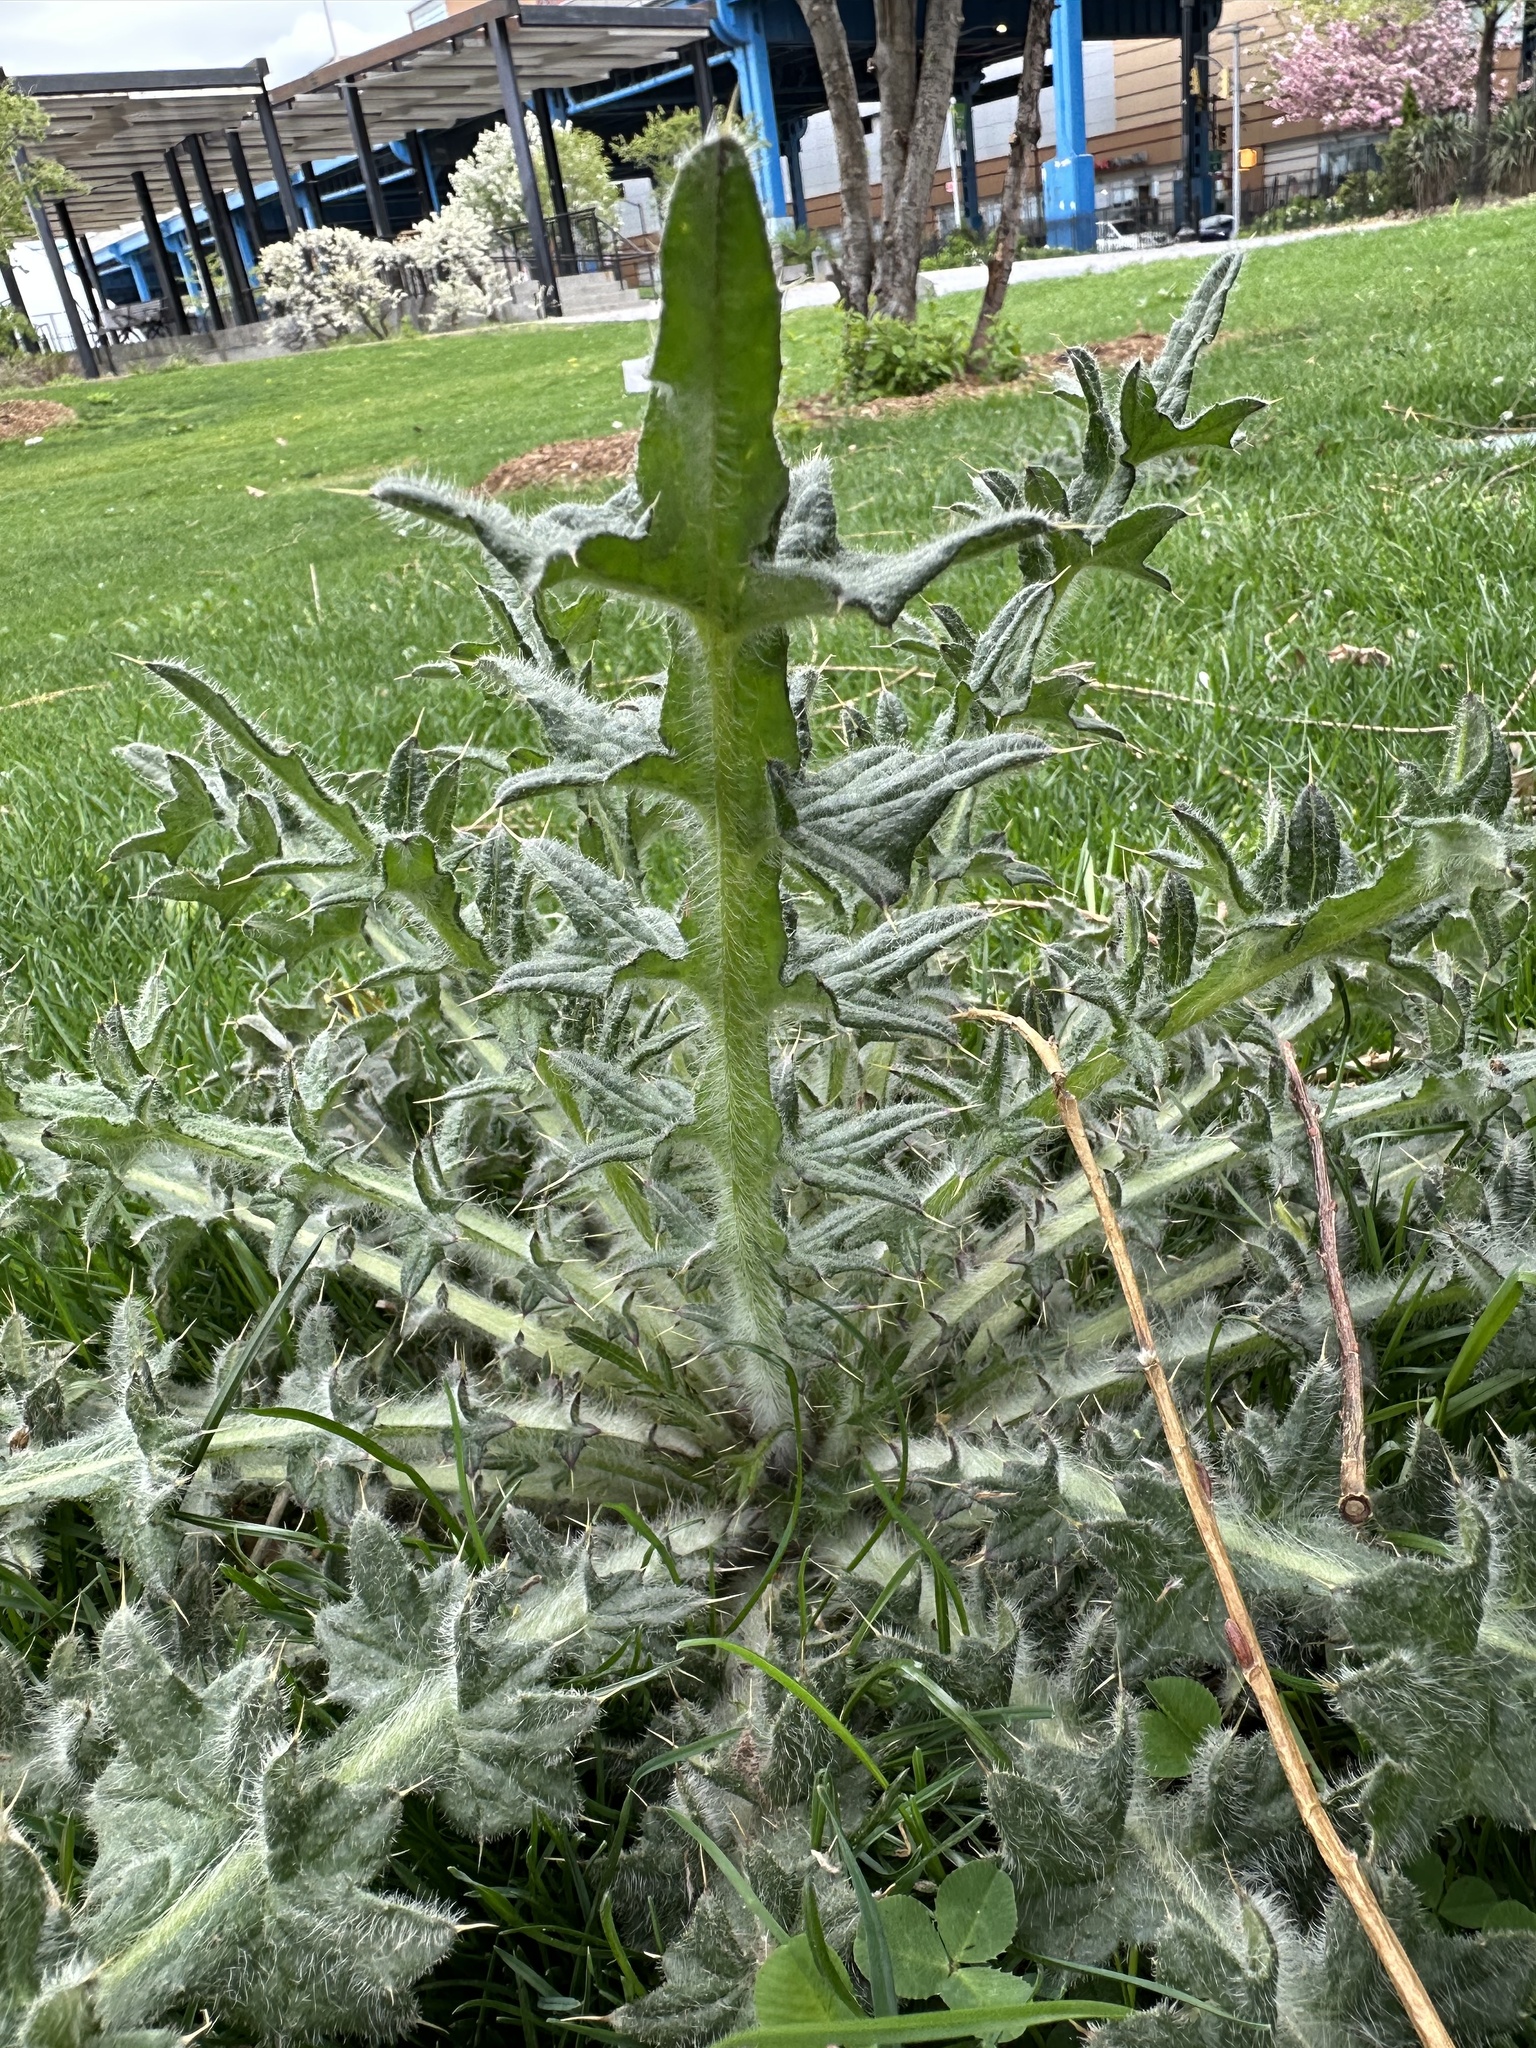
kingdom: Plantae
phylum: Tracheophyta
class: Magnoliopsida
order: Asterales
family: Asteraceae
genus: Cirsium
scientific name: Cirsium vulgare
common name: Bull thistle
